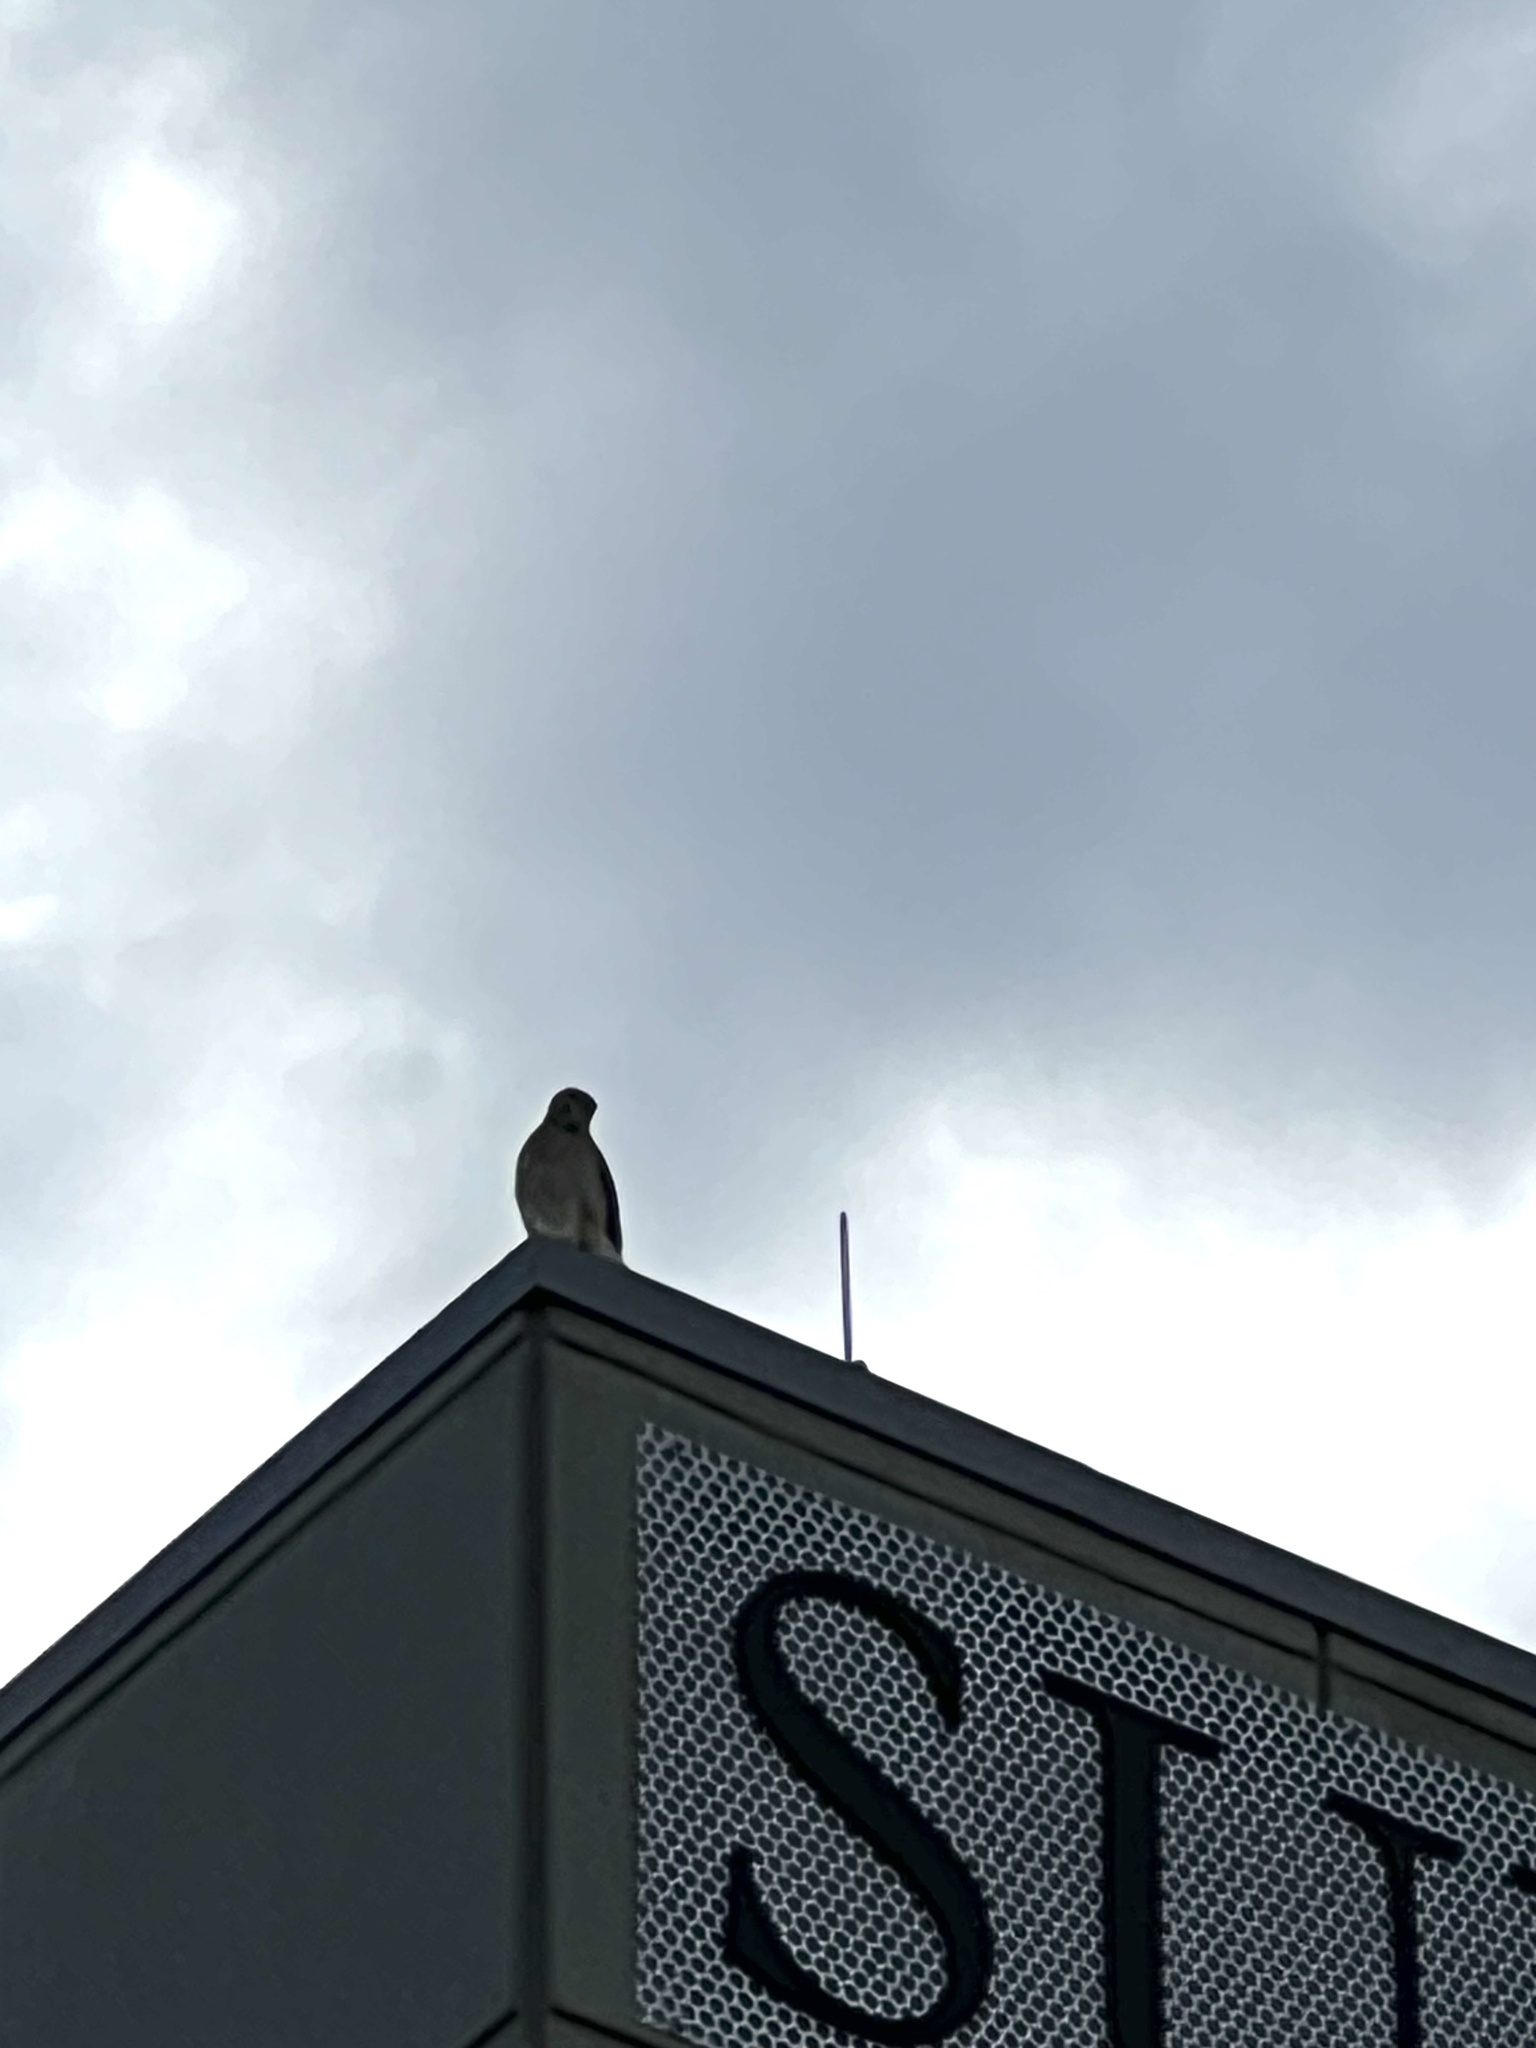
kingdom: Animalia
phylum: Chordata
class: Aves
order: Accipitriformes
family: Accipitridae
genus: Buteo
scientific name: Buteo lineatus
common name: Red-shouldered hawk
